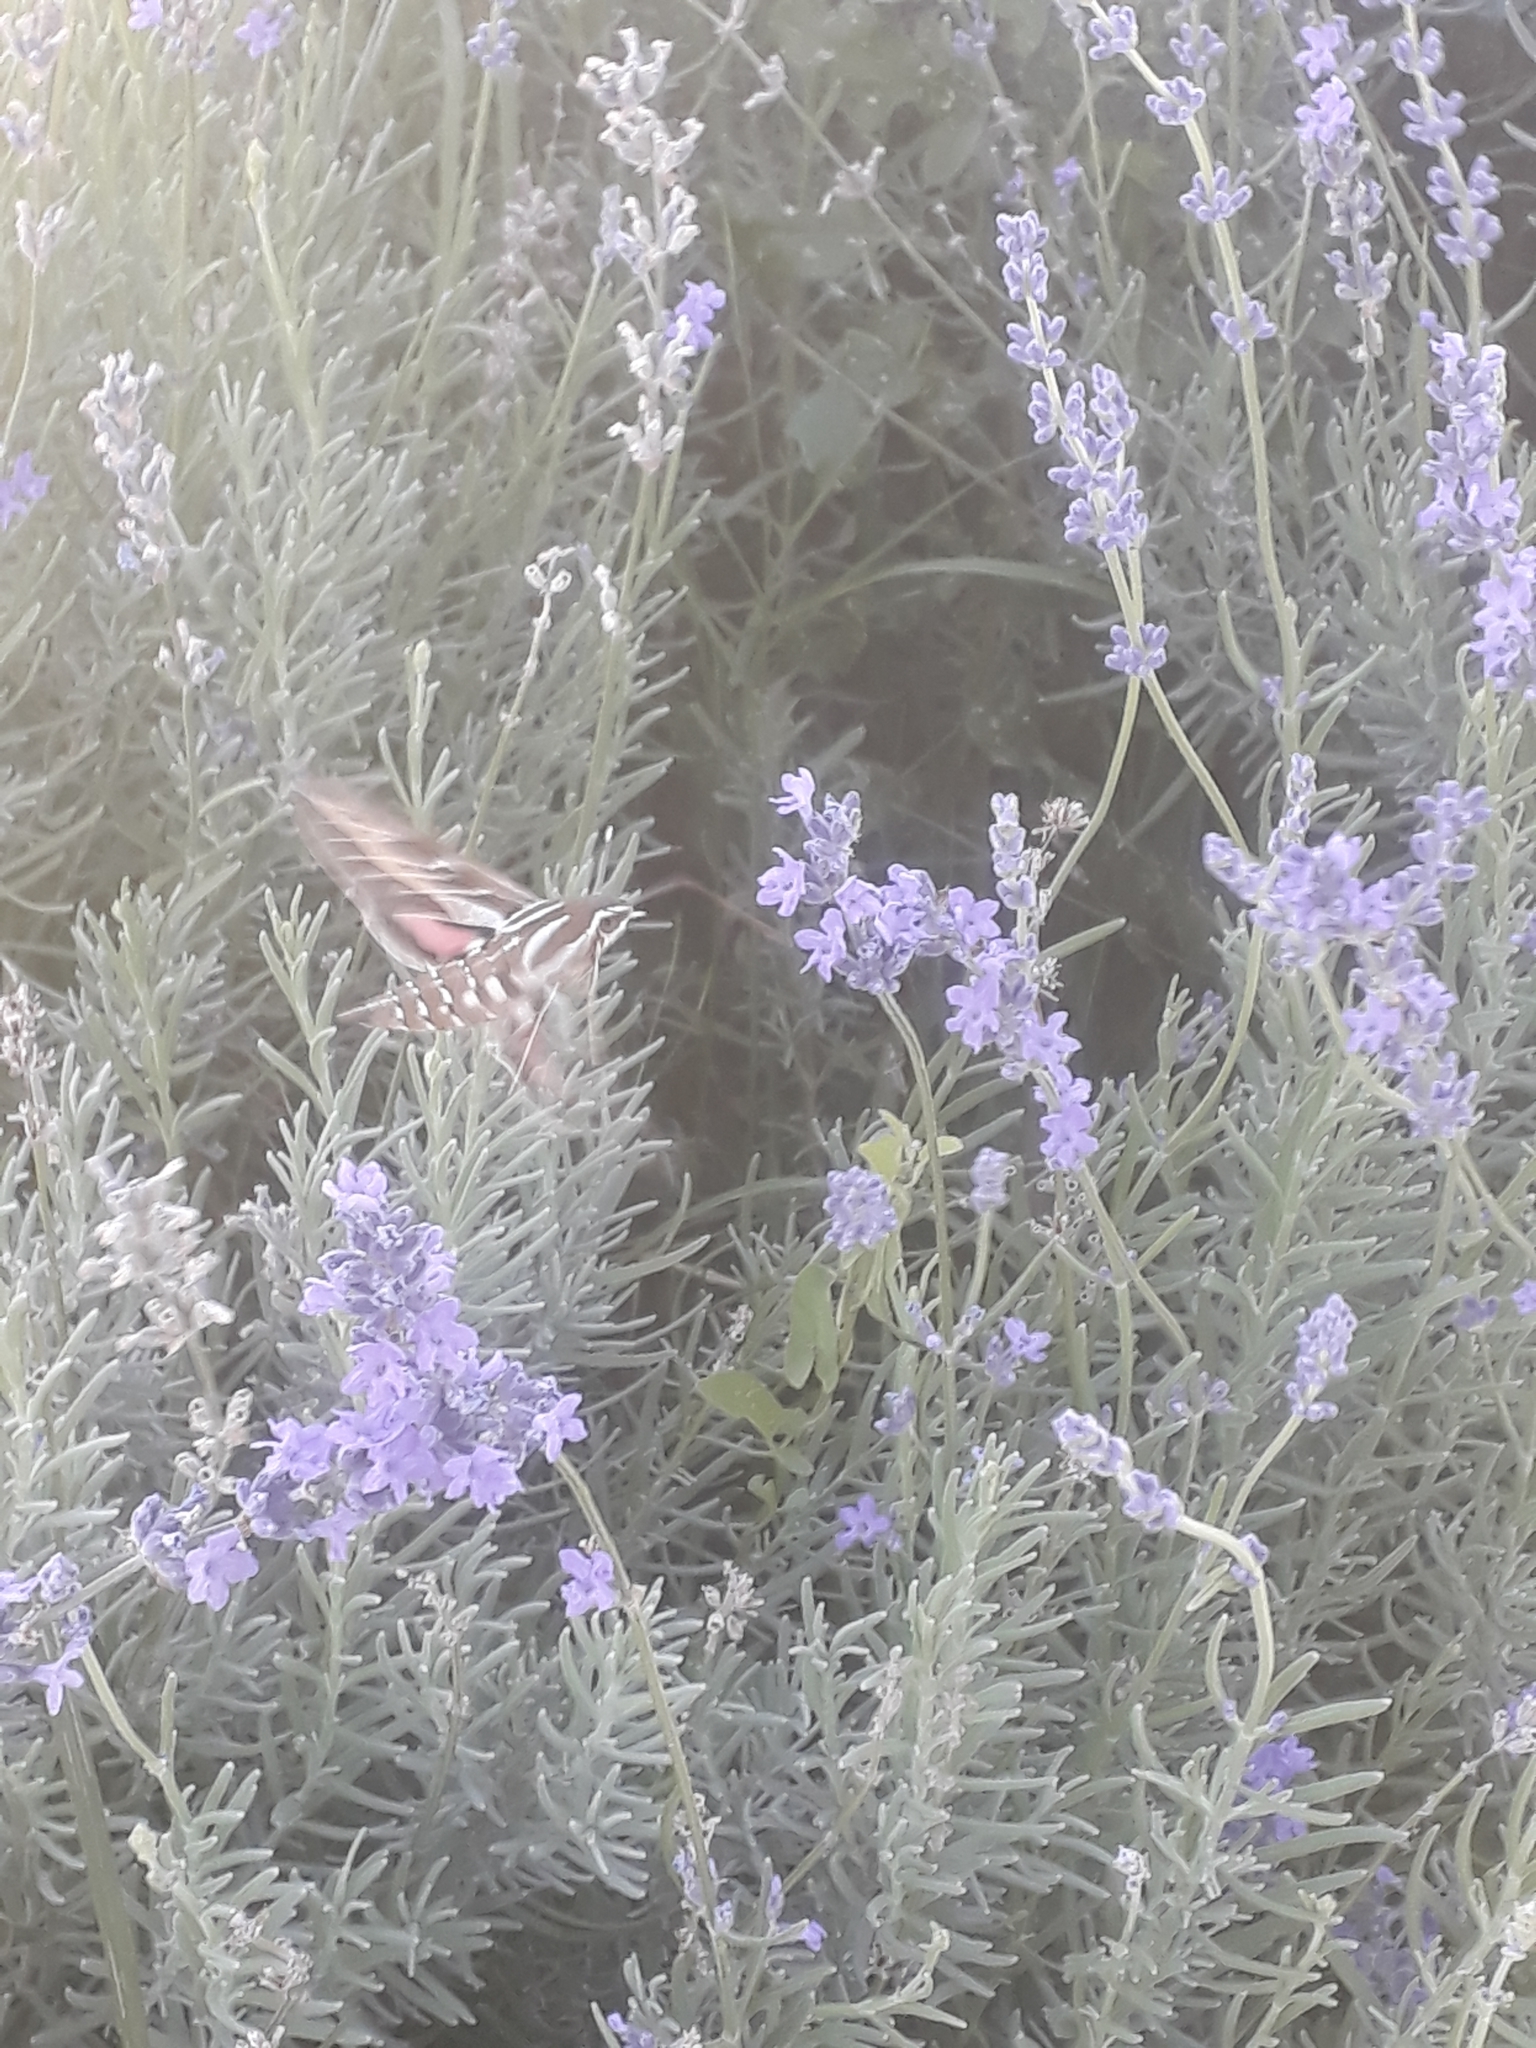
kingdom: Animalia
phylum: Arthropoda
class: Insecta
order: Lepidoptera
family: Sphingidae
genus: Hyles
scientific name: Hyles livornica
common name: Striped hawk-moth
